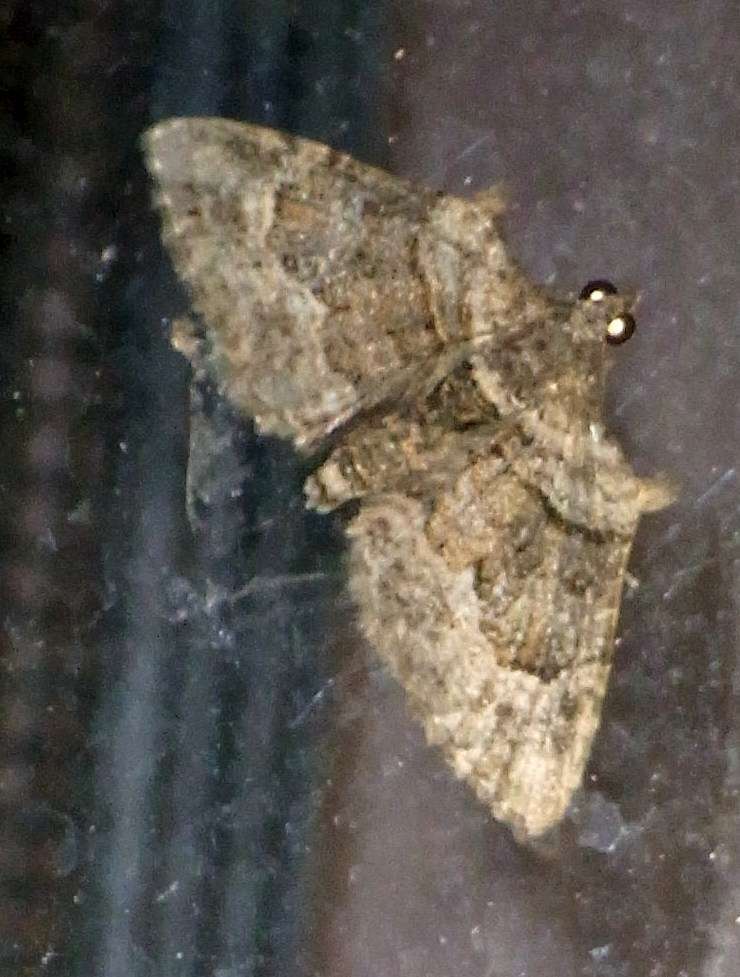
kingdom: Animalia
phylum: Arthropoda
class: Insecta
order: Lepidoptera
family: Geometridae
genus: Phrissogonus
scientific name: Phrissogonus laticostata
